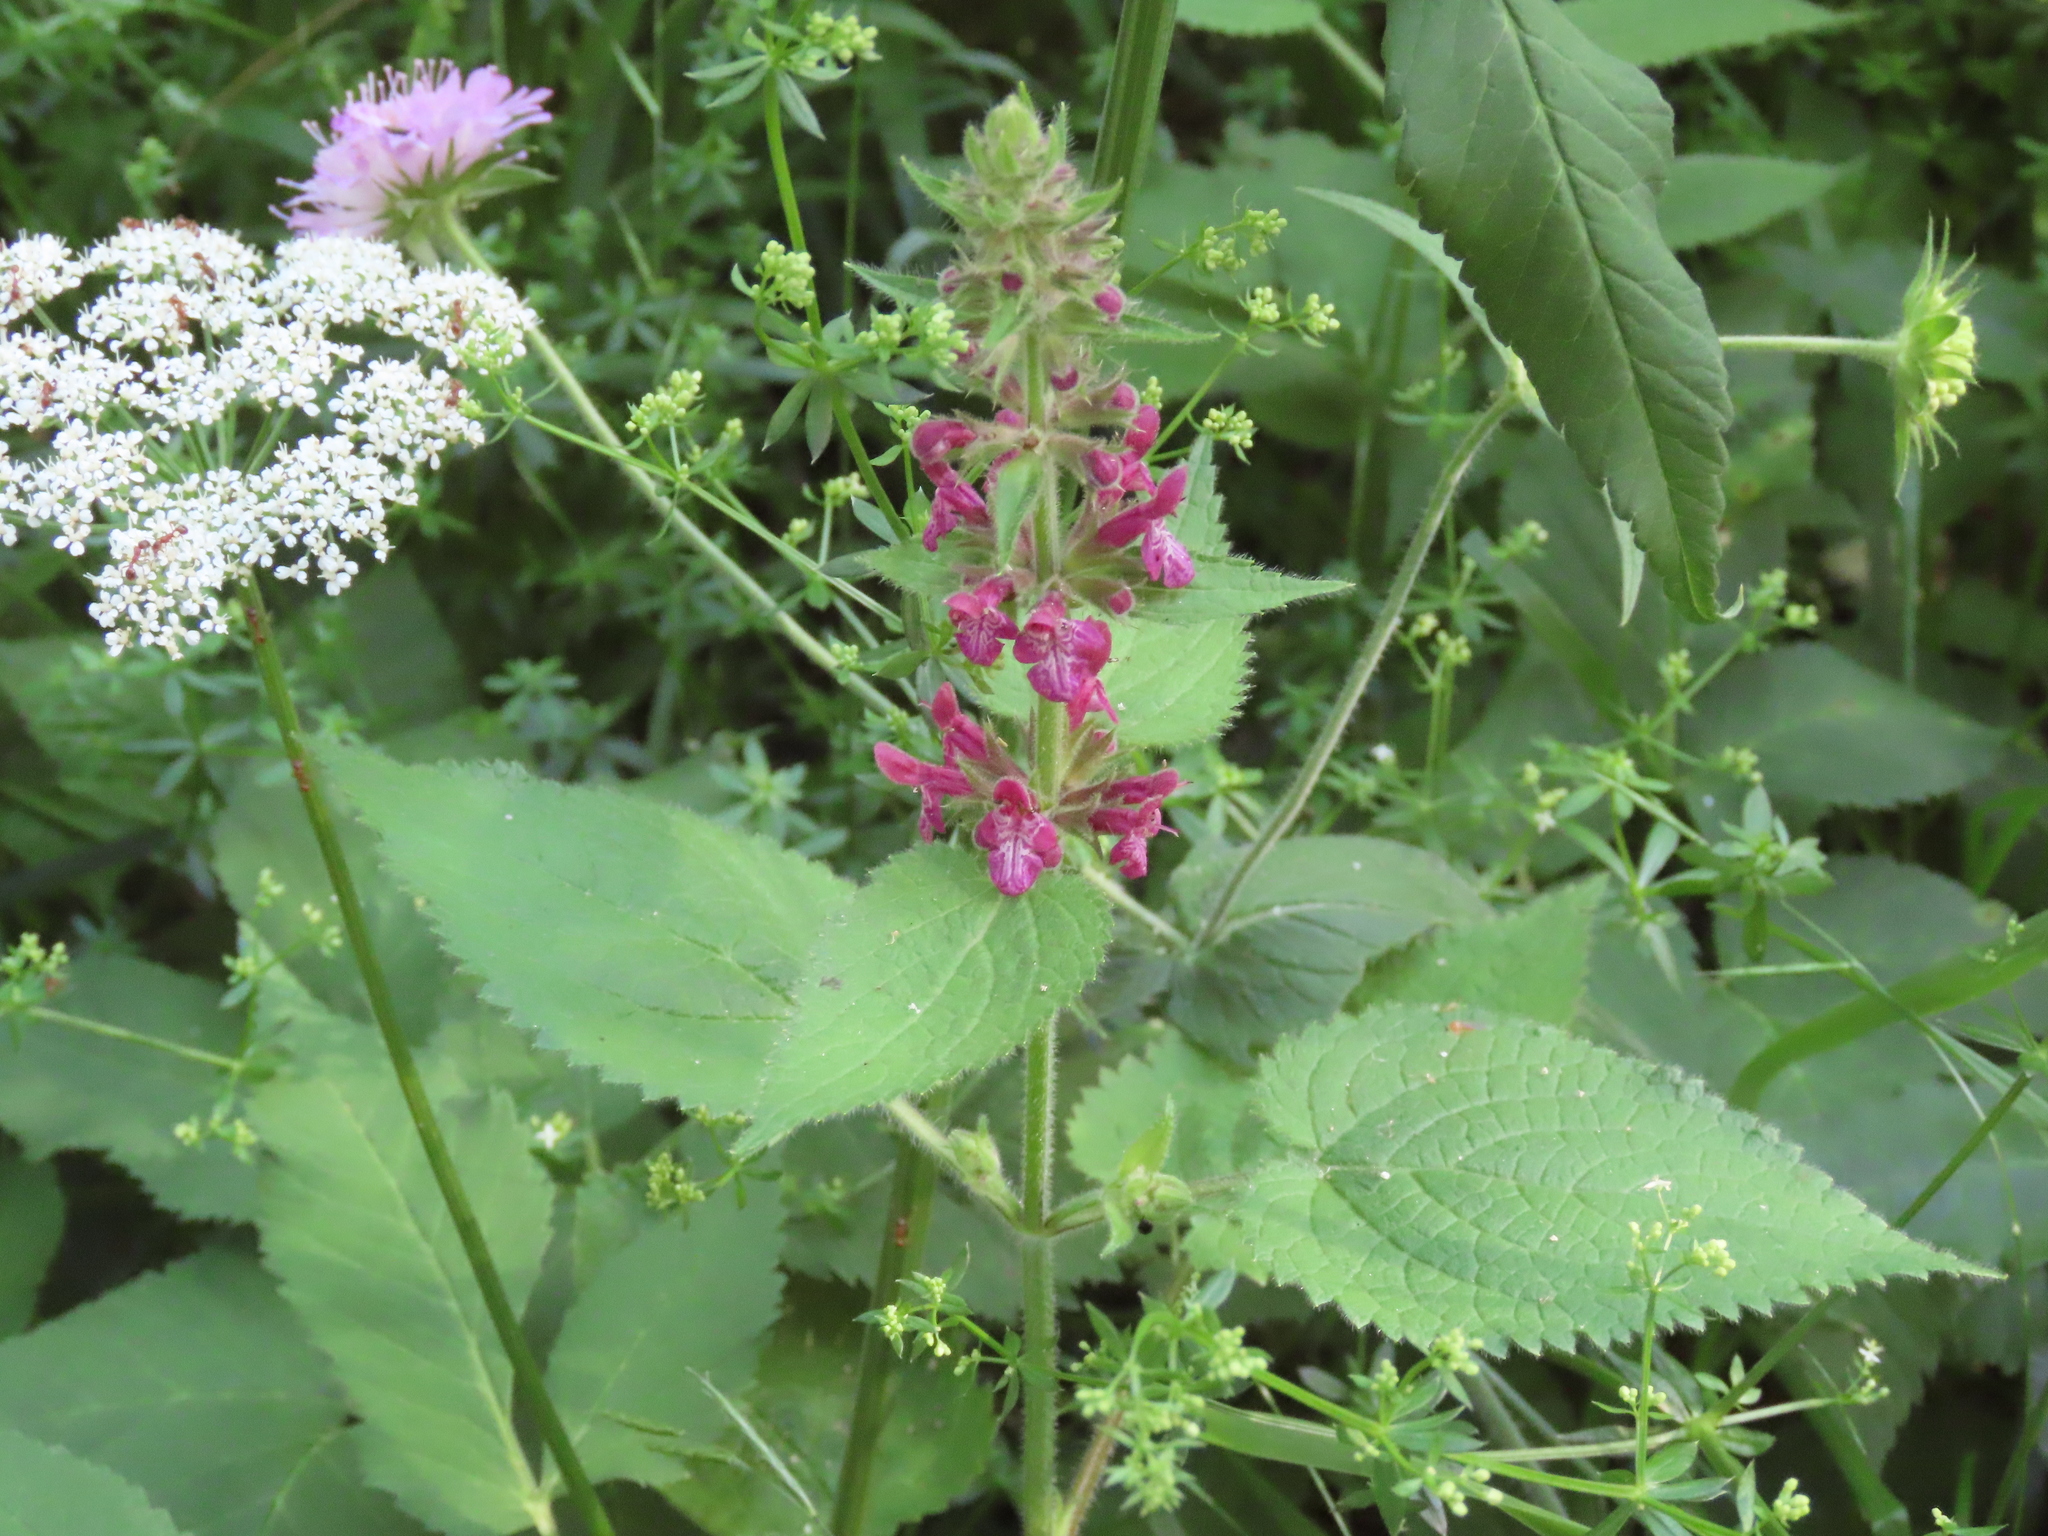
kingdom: Plantae
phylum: Tracheophyta
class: Magnoliopsida
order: Lamiales
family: Lamiaceae
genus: Stachys
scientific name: Stachys sylvatica
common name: Hedge woundwort
